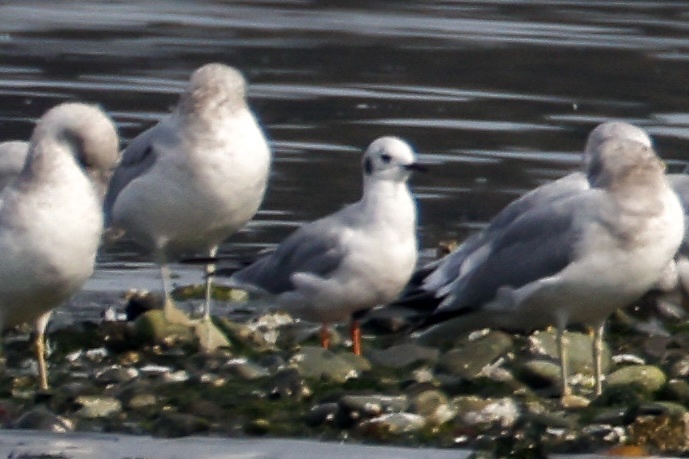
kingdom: Animalia
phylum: Chordata
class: Aves
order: Charadriiformes
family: Laridae
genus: Chroicocephalus
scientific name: Chroicocephalus philadelphia
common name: Bonaparte's gull
